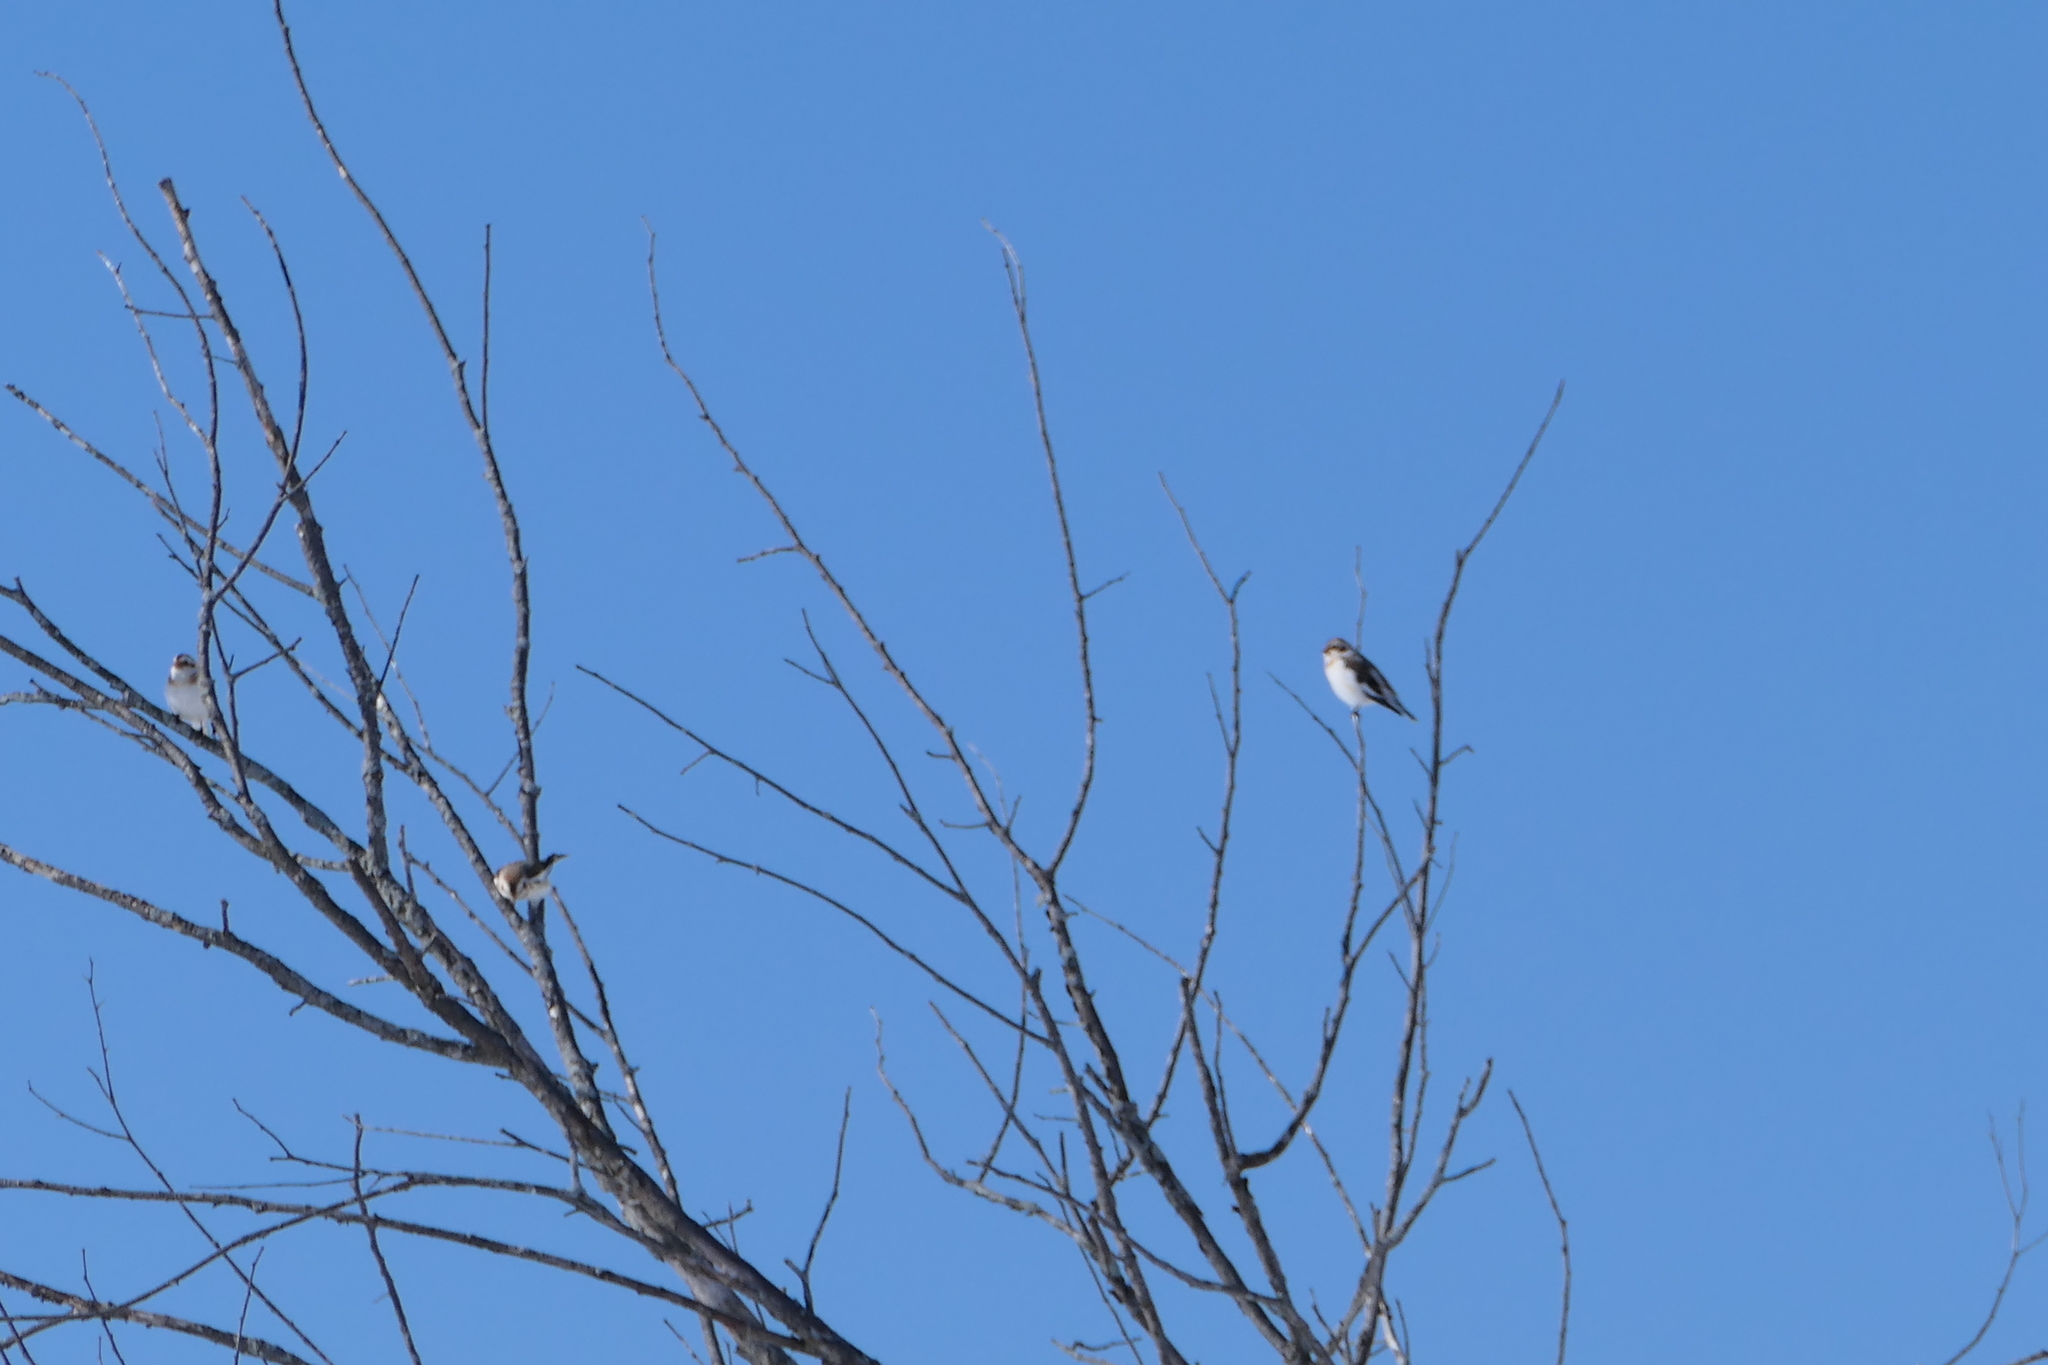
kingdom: Animalia
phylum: Chordata
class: Aves
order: Passeriformes
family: Calcariidae
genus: Plectrophenax
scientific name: Plectrophenax nivalis
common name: Snow bunting
